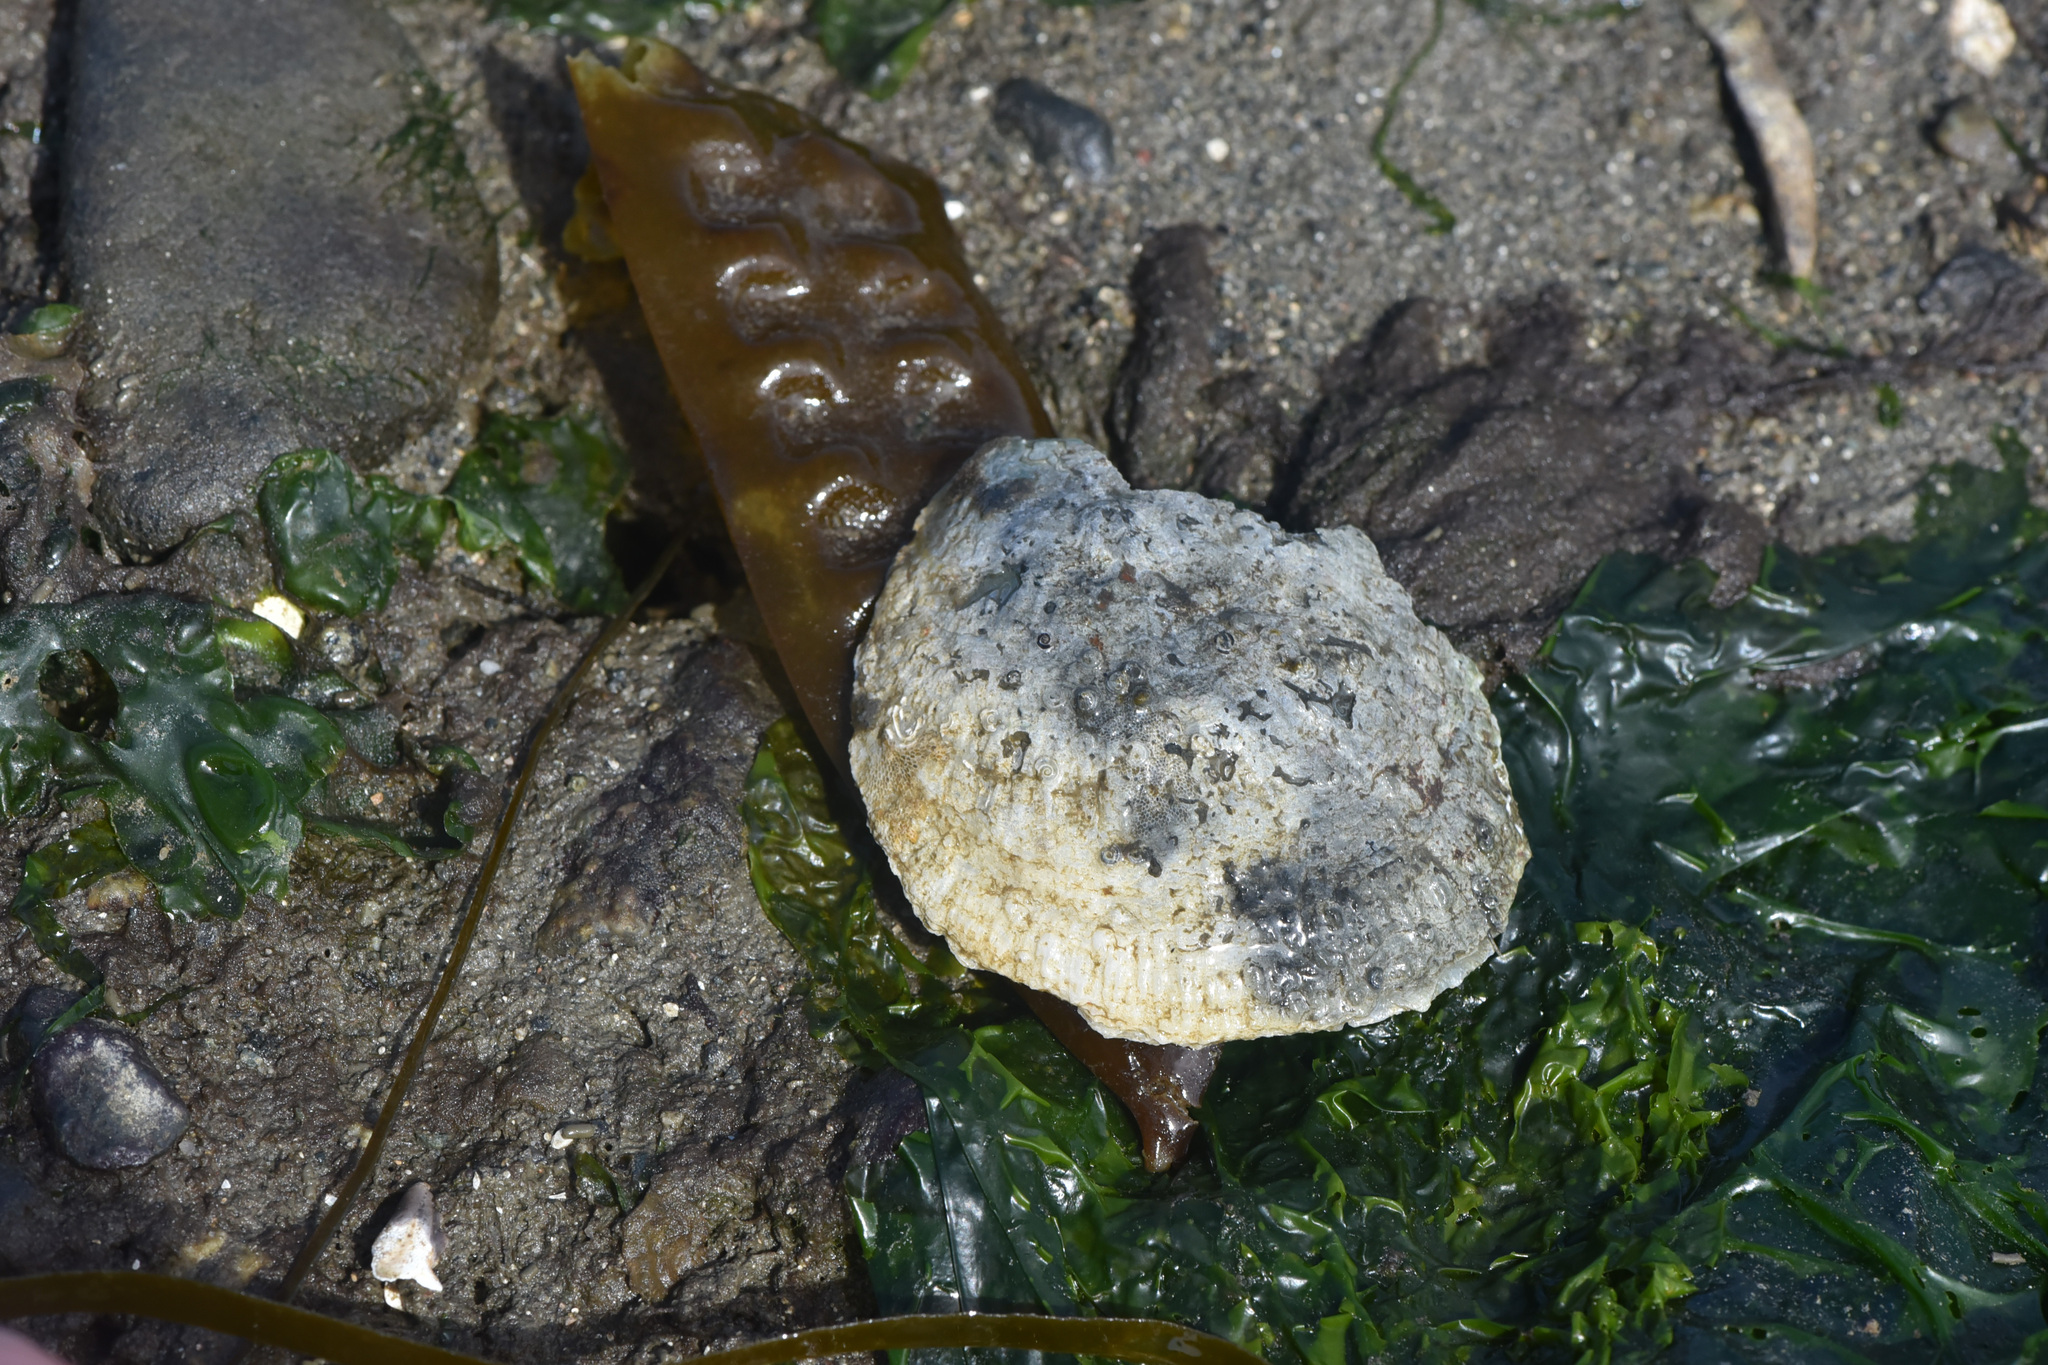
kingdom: Animalia
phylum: Mollusca
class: Bivalvia
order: Pectinida
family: Anomiidae
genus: Pododesmus
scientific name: Pododesmus macrochisma
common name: Alaska jingle
